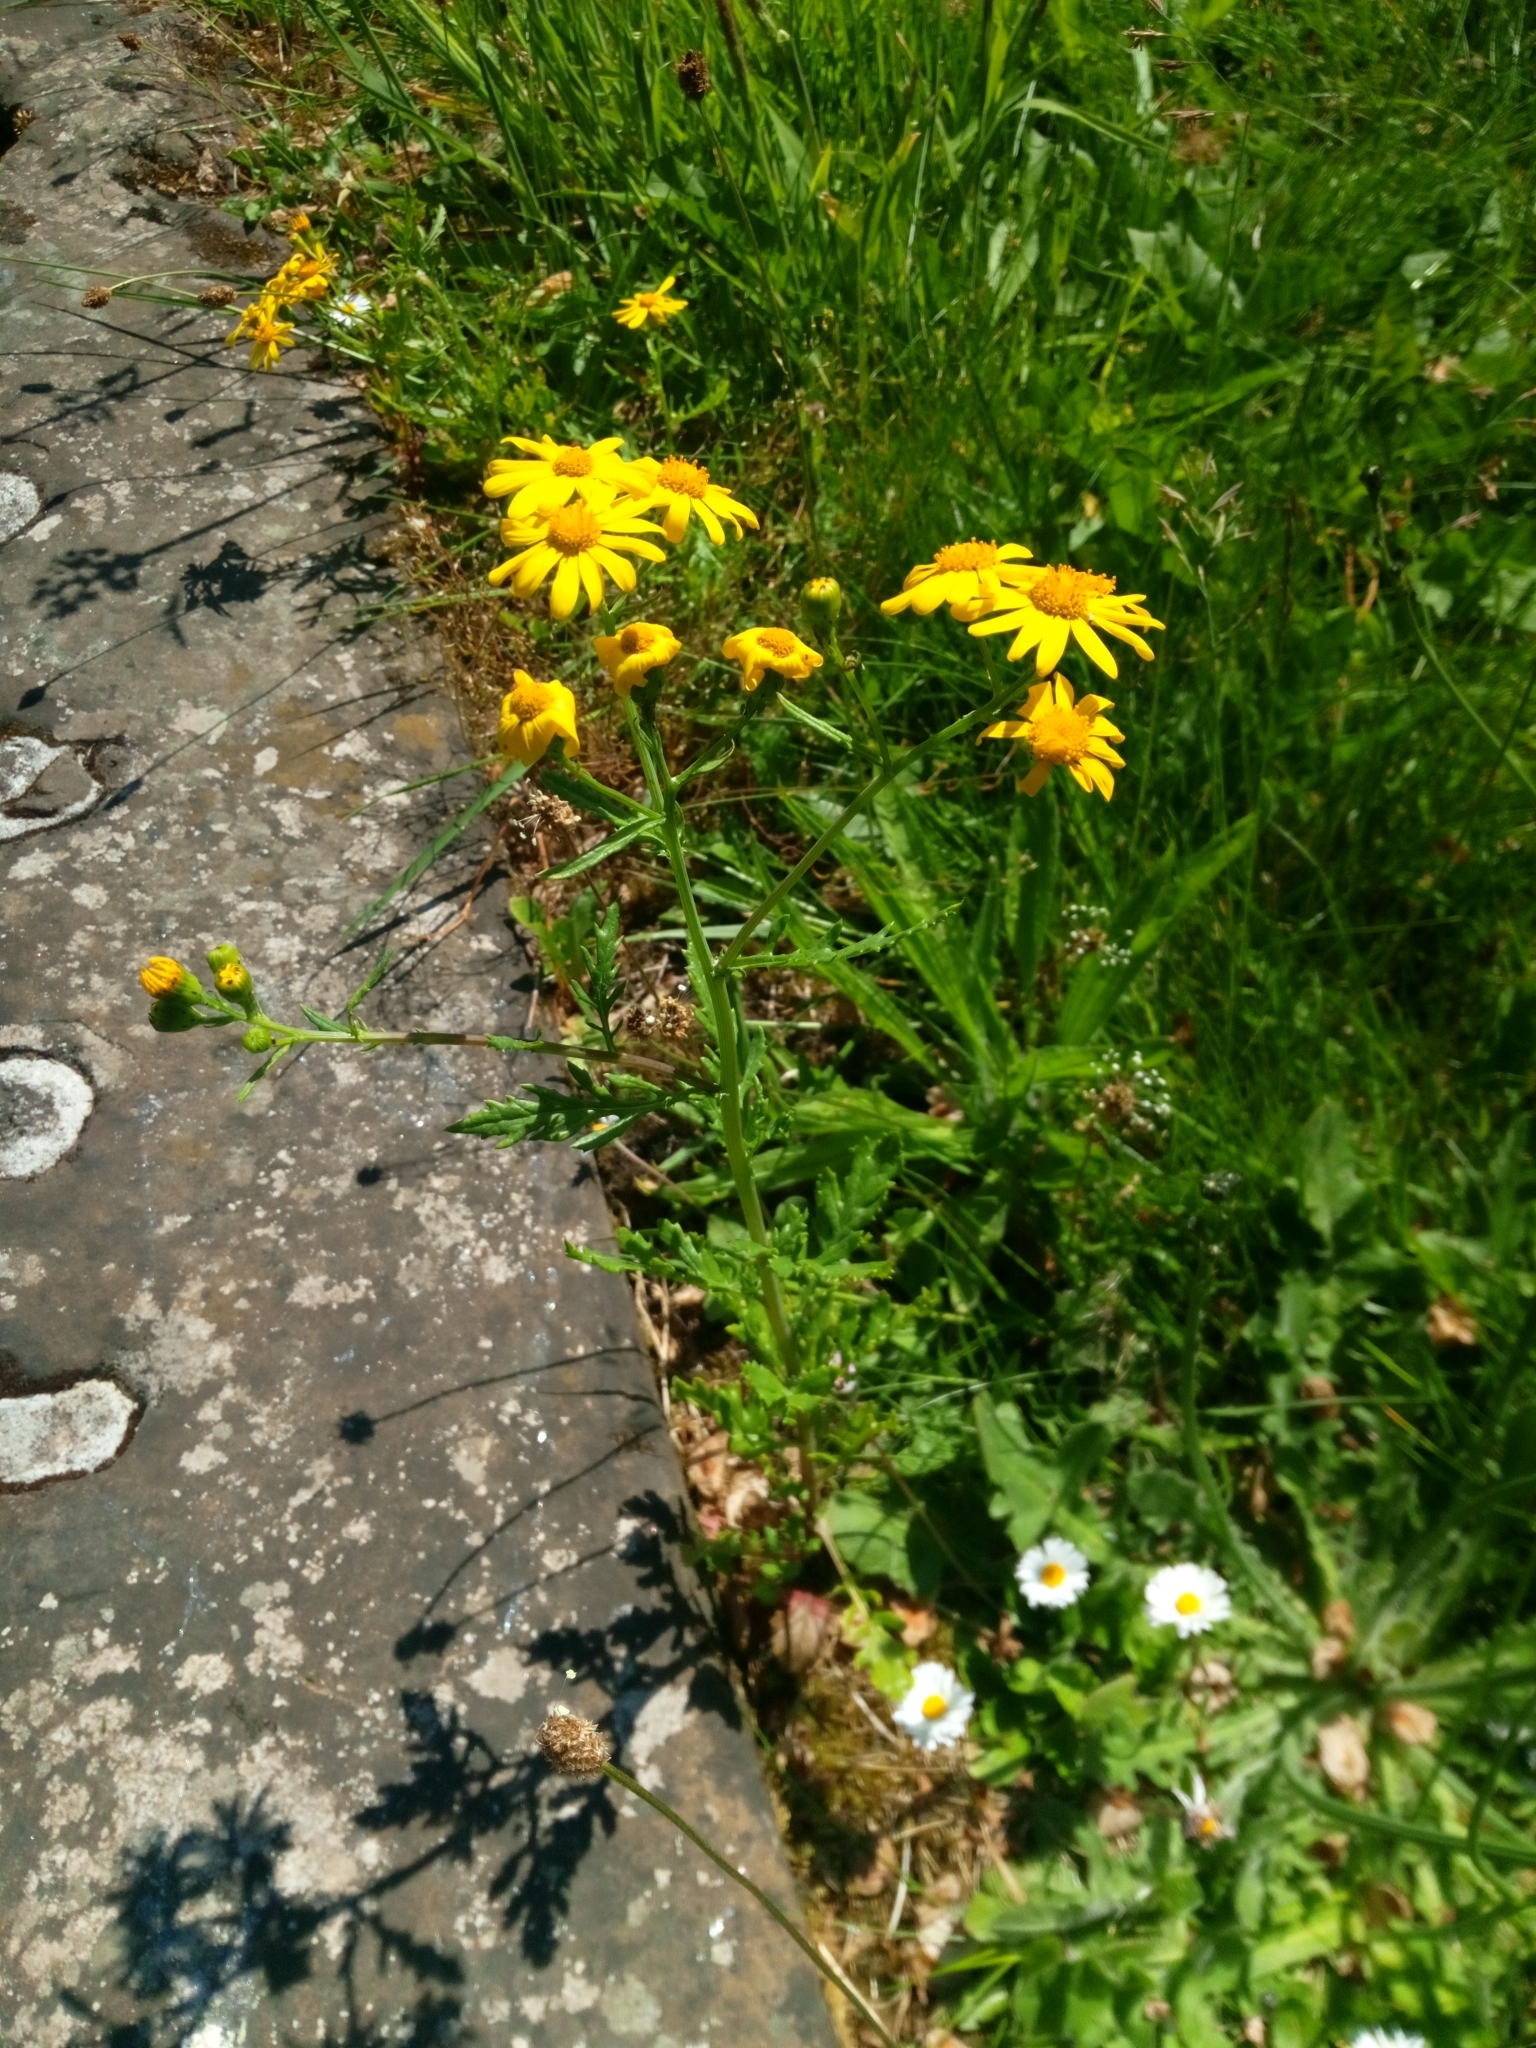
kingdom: Plantae
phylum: Tracheophyta
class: Magnoliopsida
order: Asterales
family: Asteraceae
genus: Senecio
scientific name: Senecio squalidus
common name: Oxford ragwort
